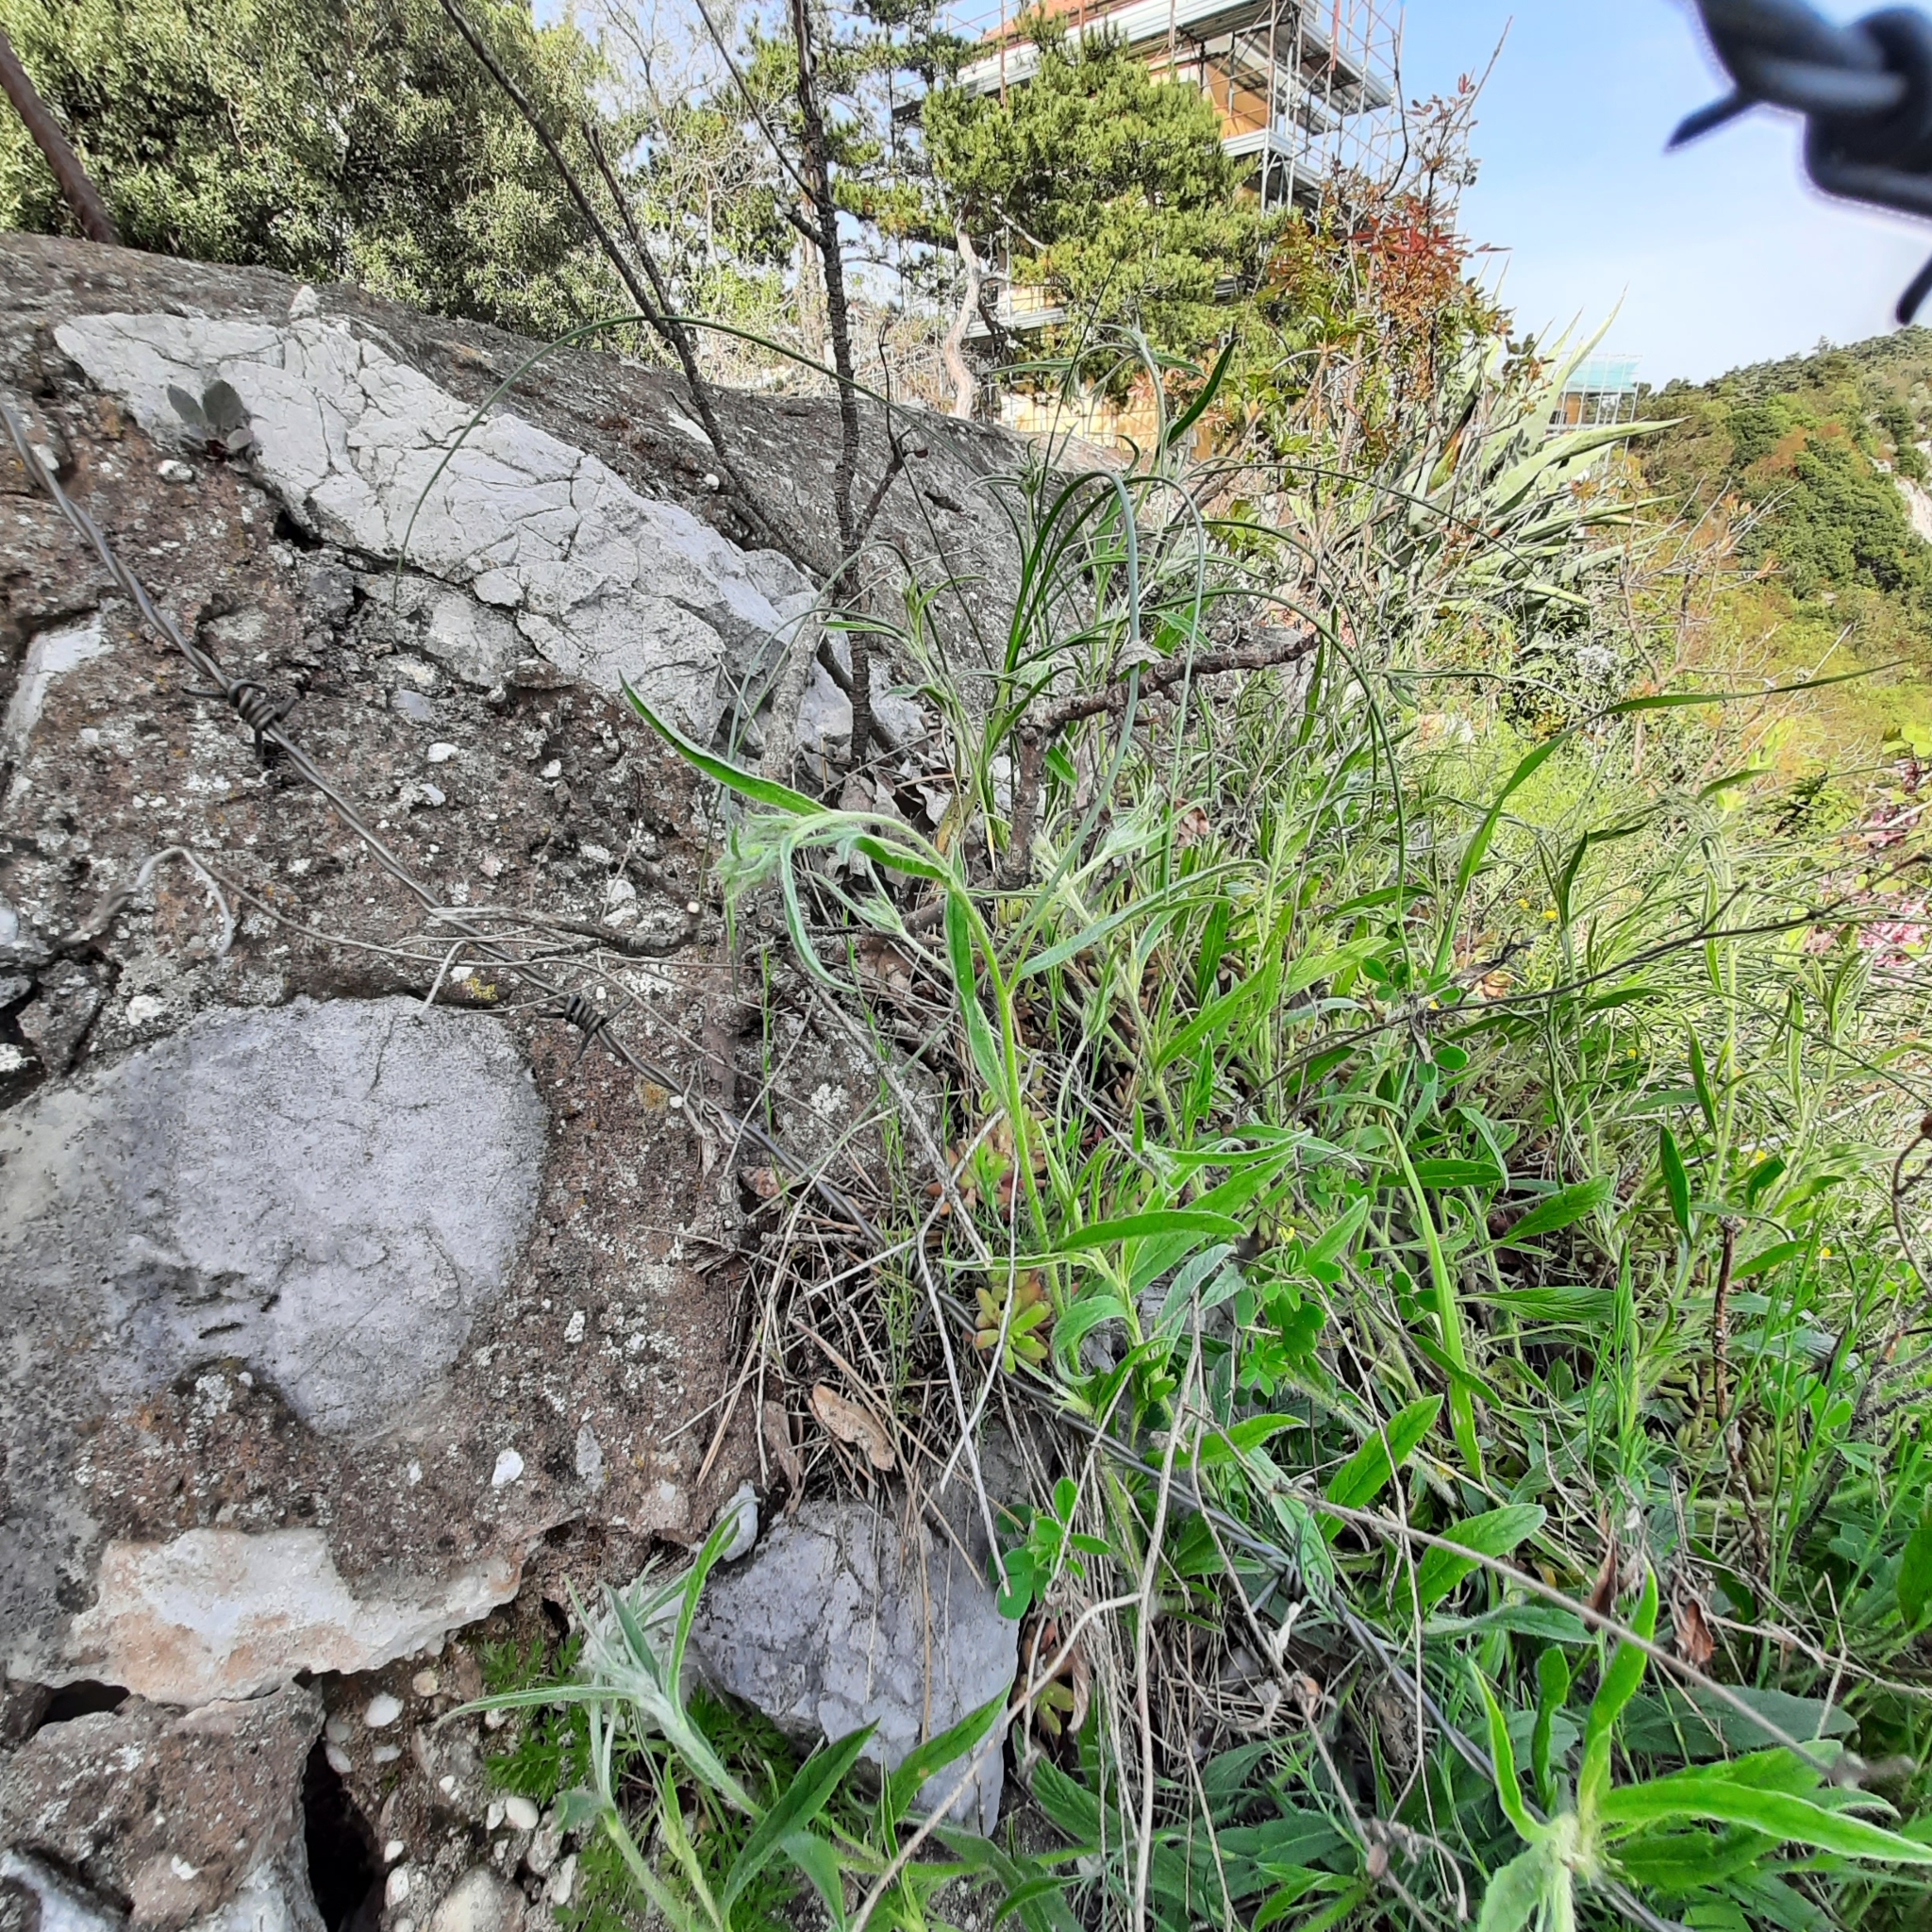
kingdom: Plantae
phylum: Tracheophyta
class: Magnoliopsida
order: Solanales
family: Convolvulaceae
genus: Convolvulus
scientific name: Convolvulus cantabrica
